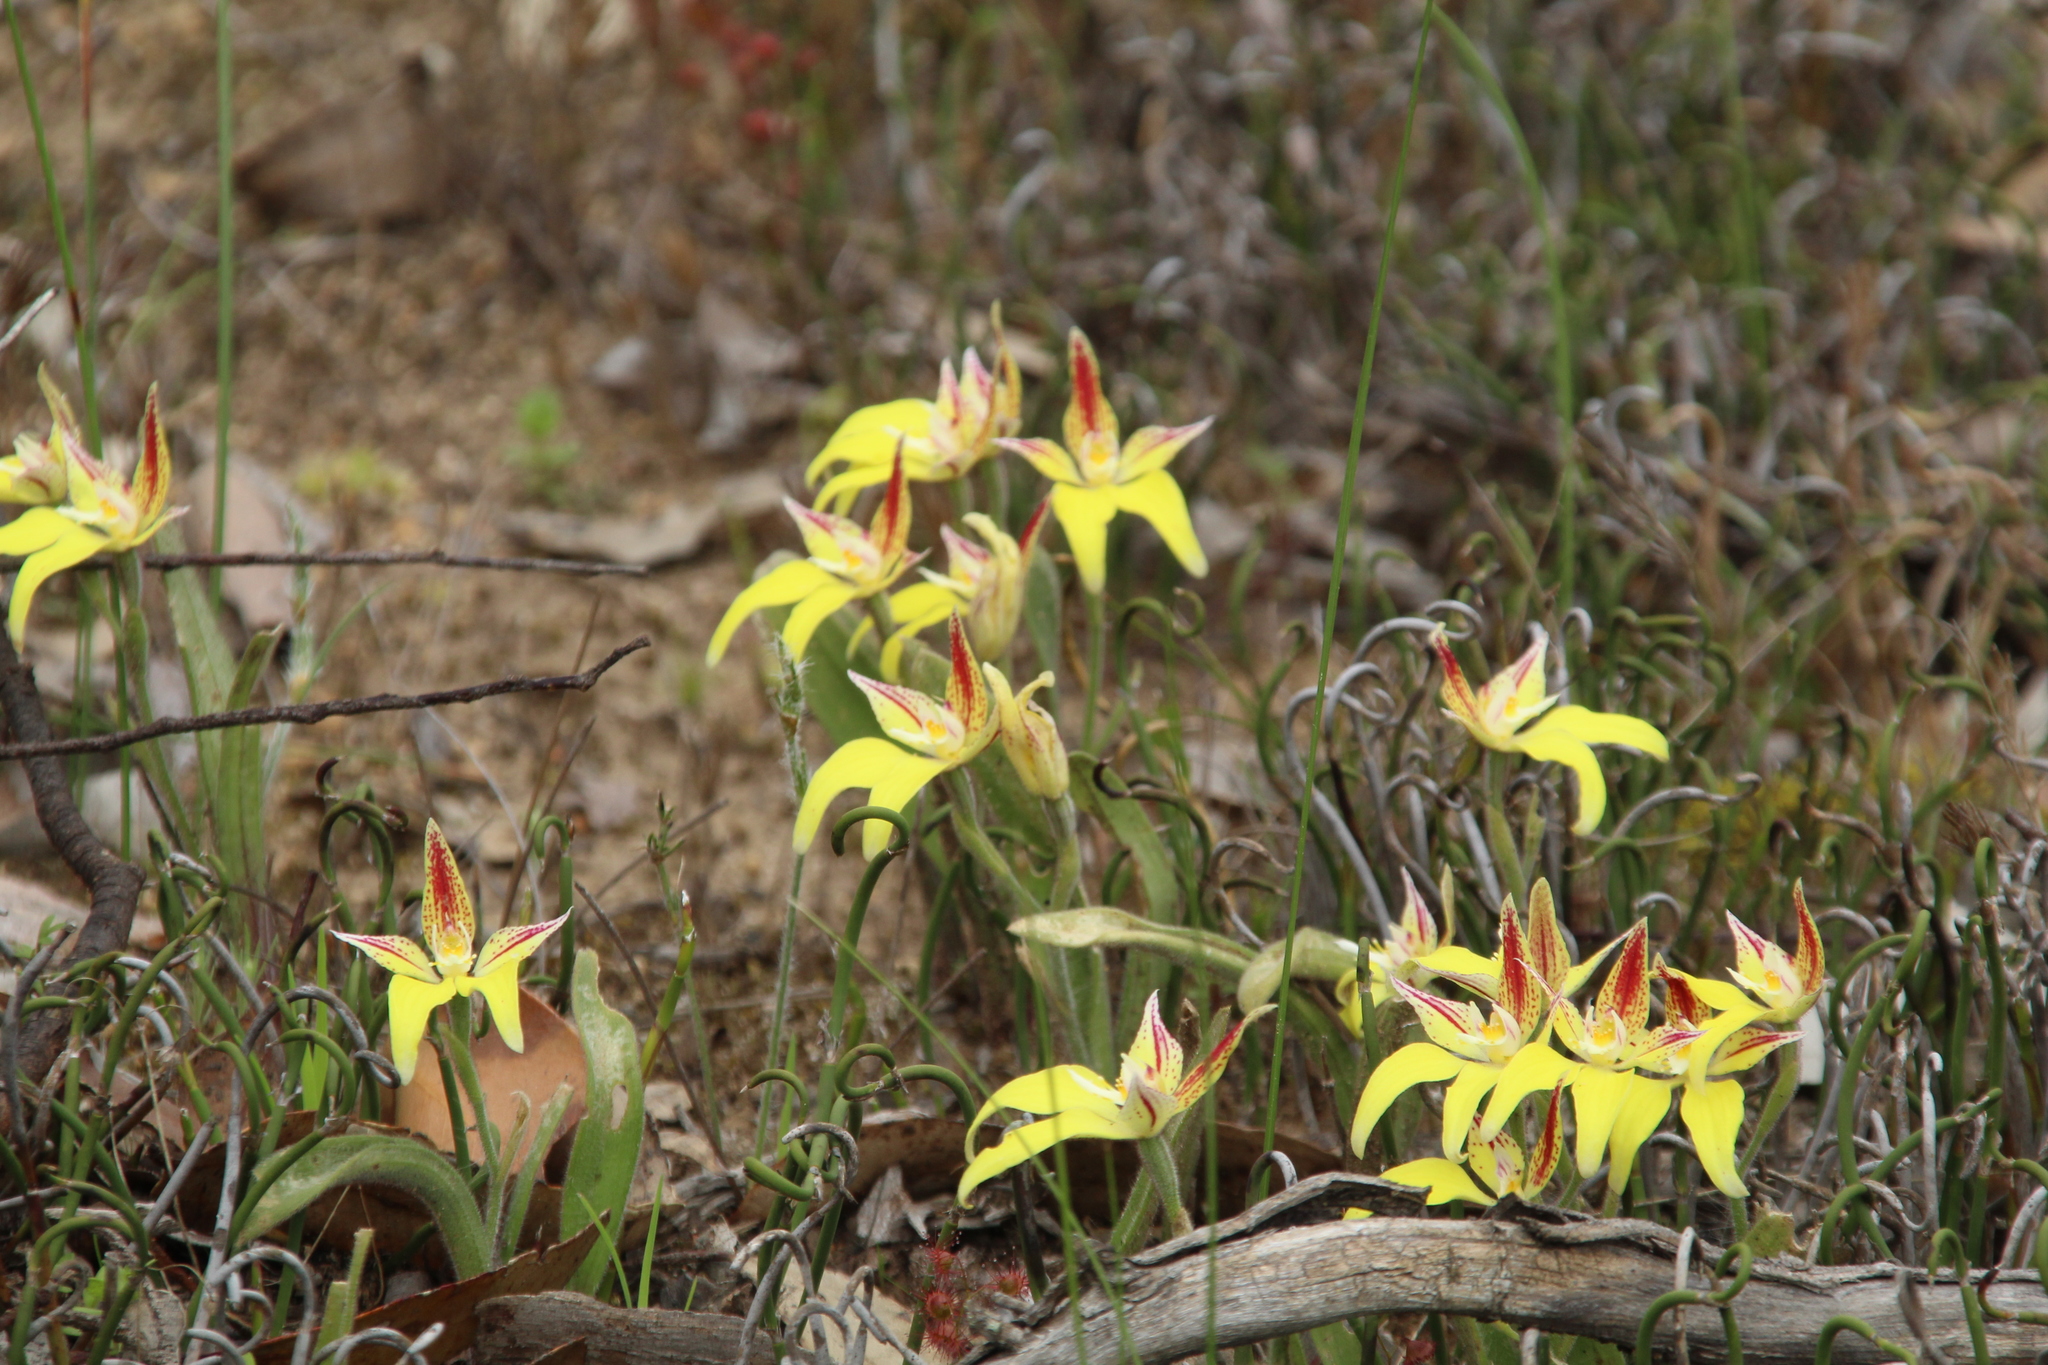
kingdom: Plantae
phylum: Tracheophyta
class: Liliopsida
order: Asparagales
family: Orchidaceae
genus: Caladenia
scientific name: Caladenia flava
